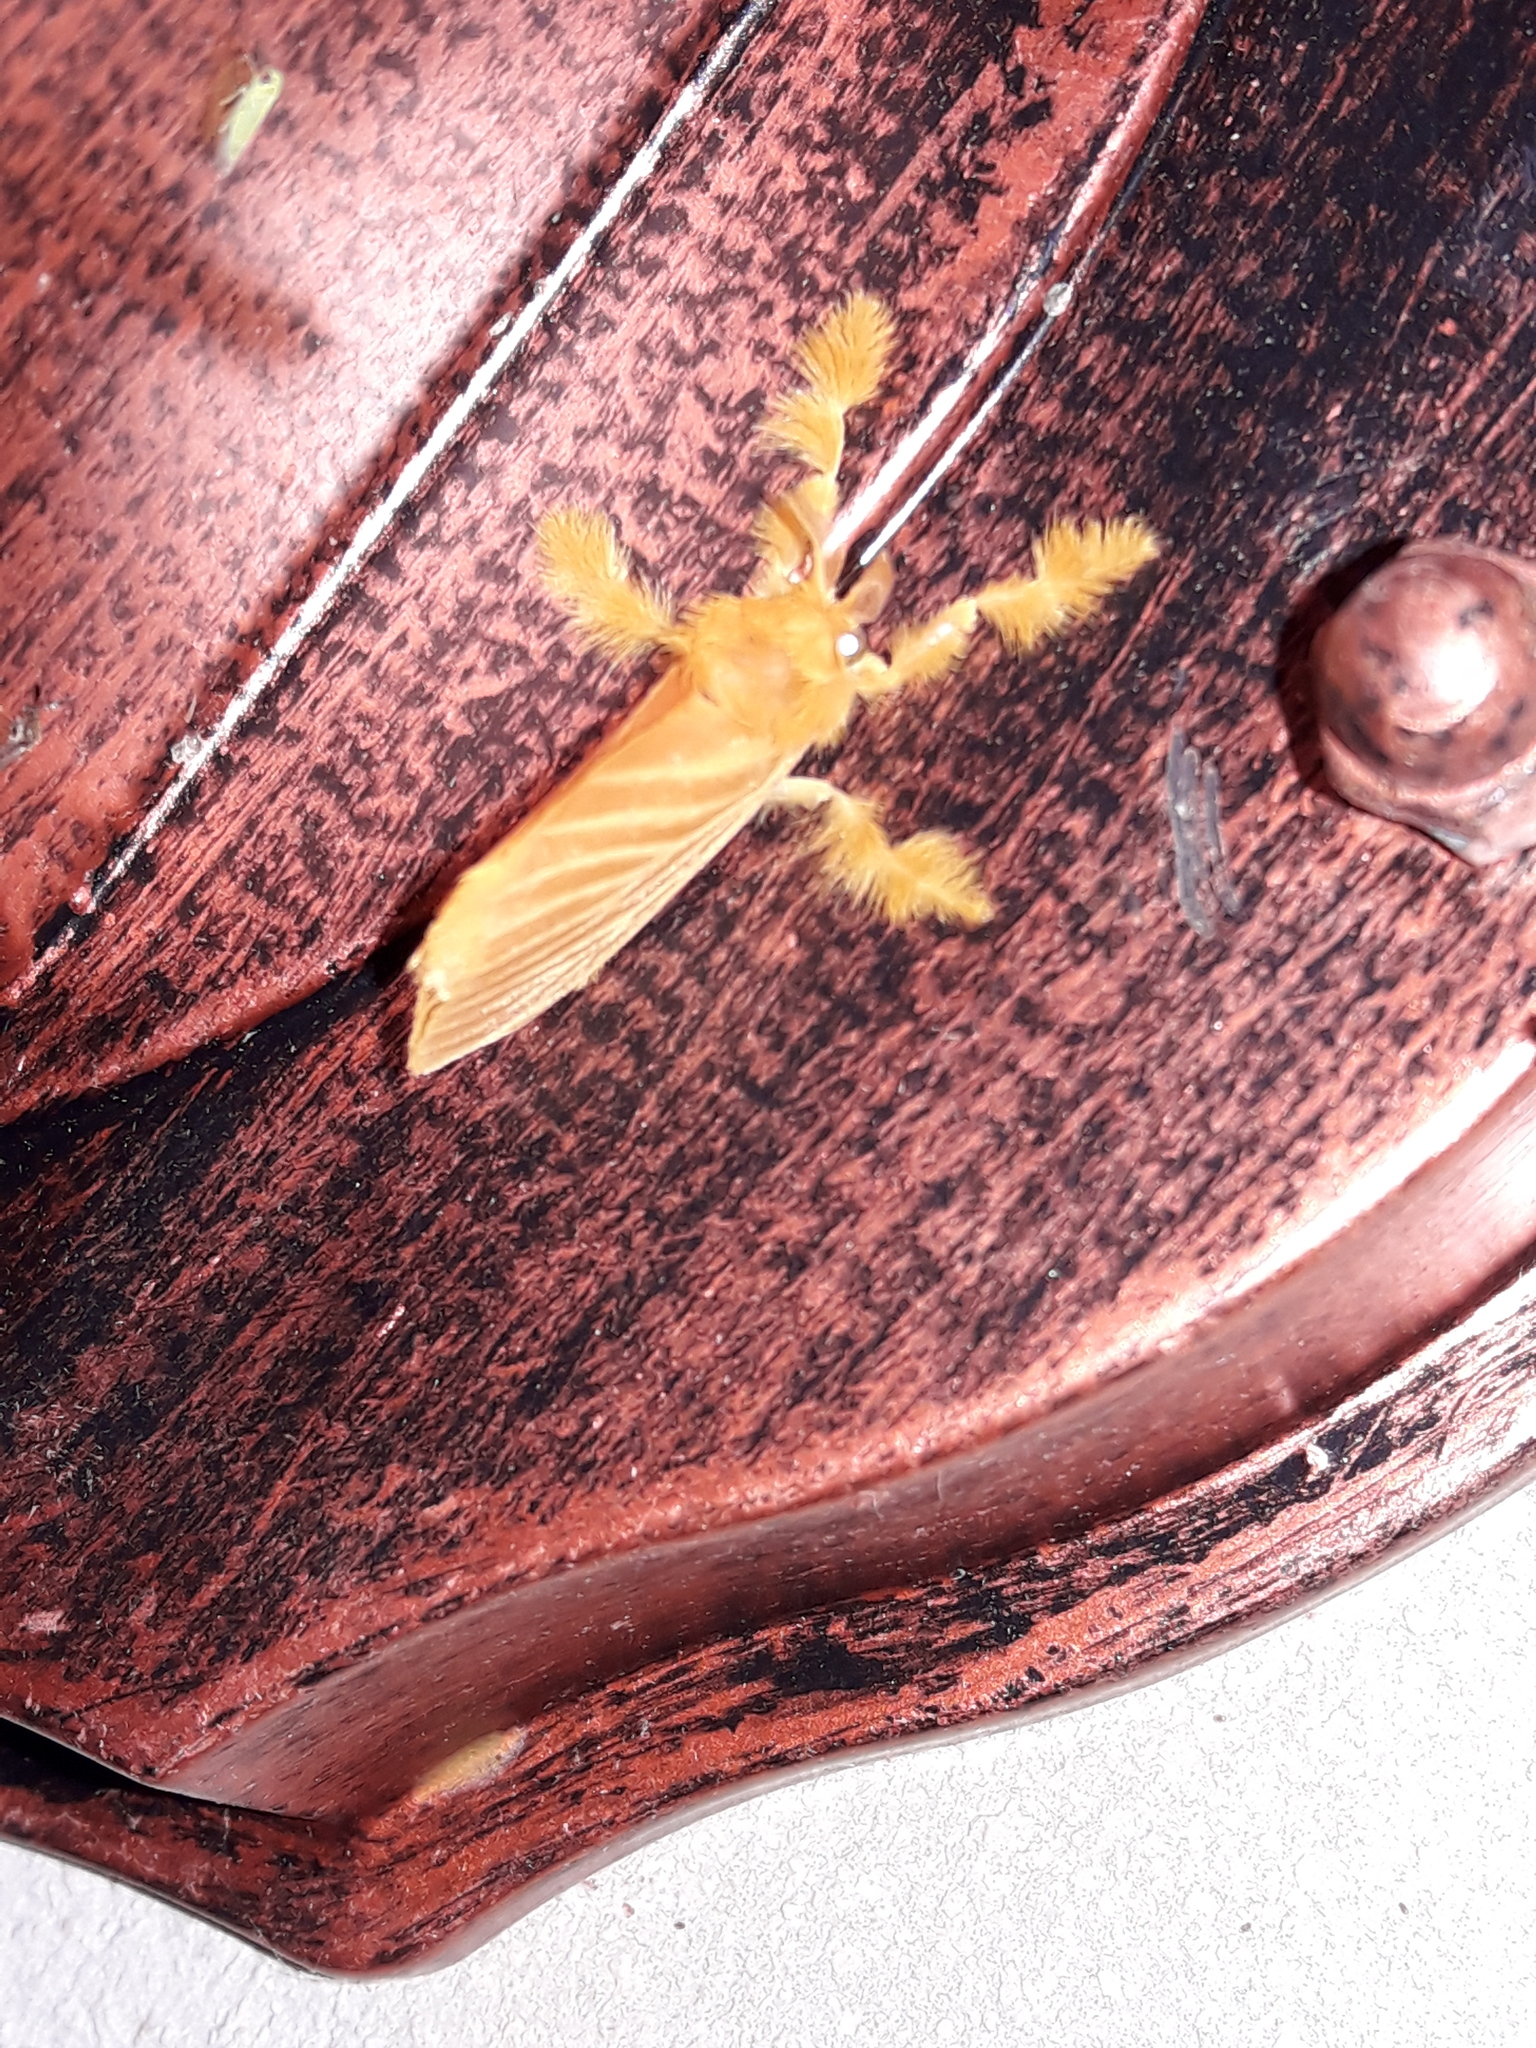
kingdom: Animalia
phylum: Arthropoda
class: Insecta
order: Lepidoptera
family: Dalceridae
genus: Acraga
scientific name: Acraga coa
